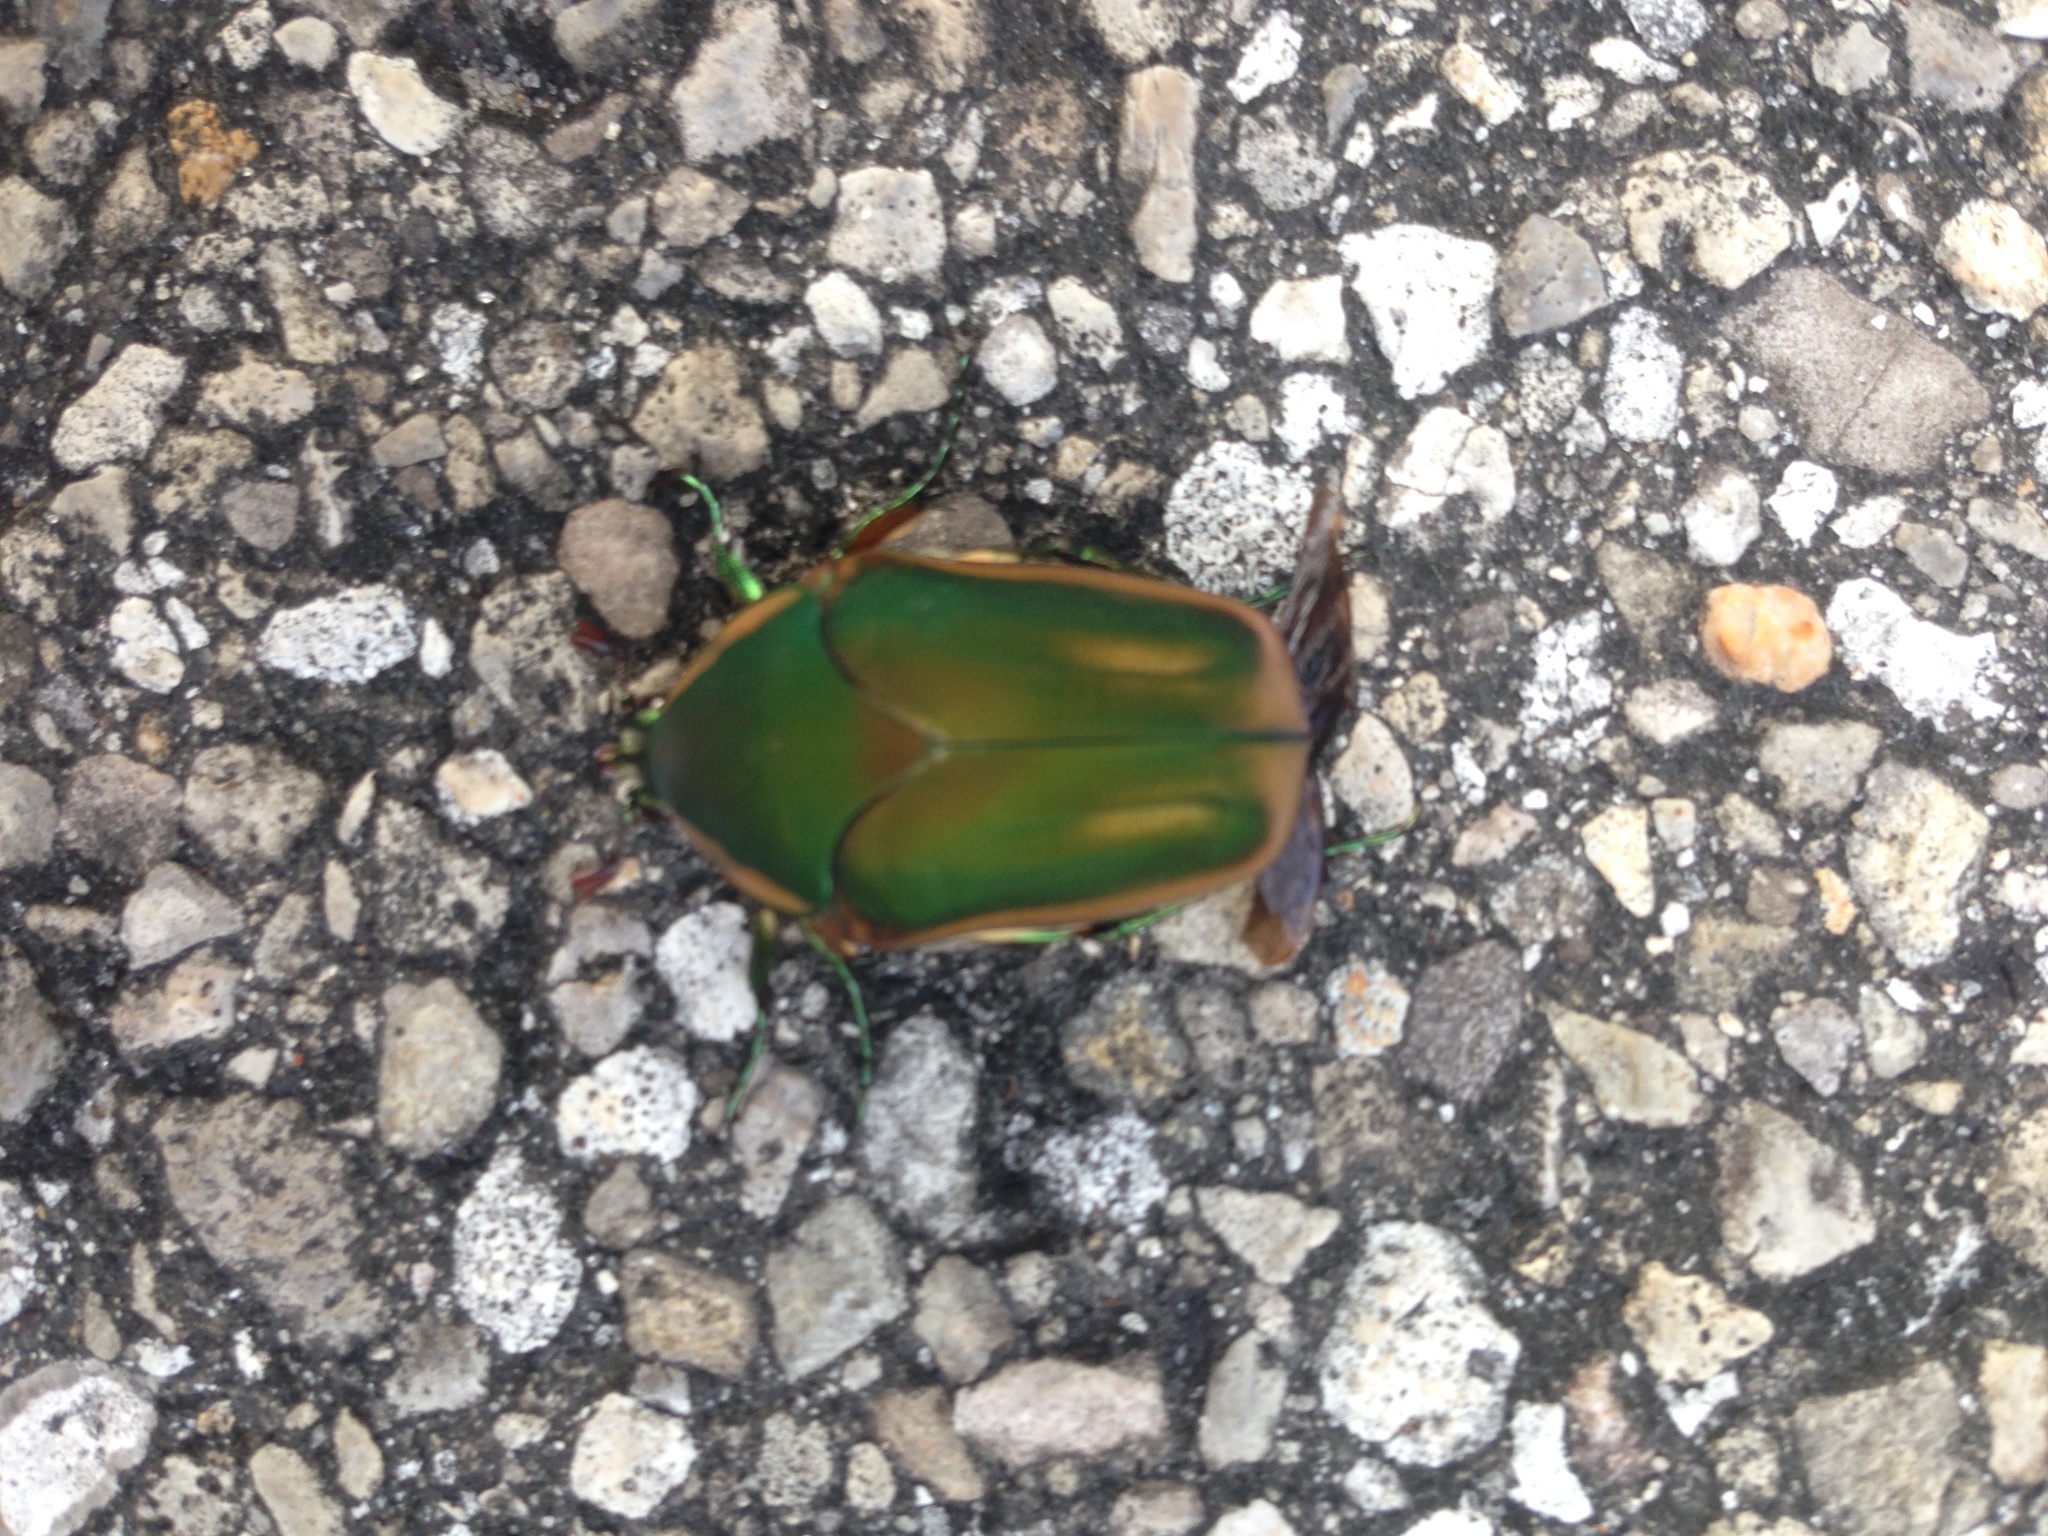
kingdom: Animalia
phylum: Arthropoda
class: Insecta
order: Coleoptera
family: Scarabaeidae
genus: Cotinis
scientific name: Cotinis nitida
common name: Common green june beetle
